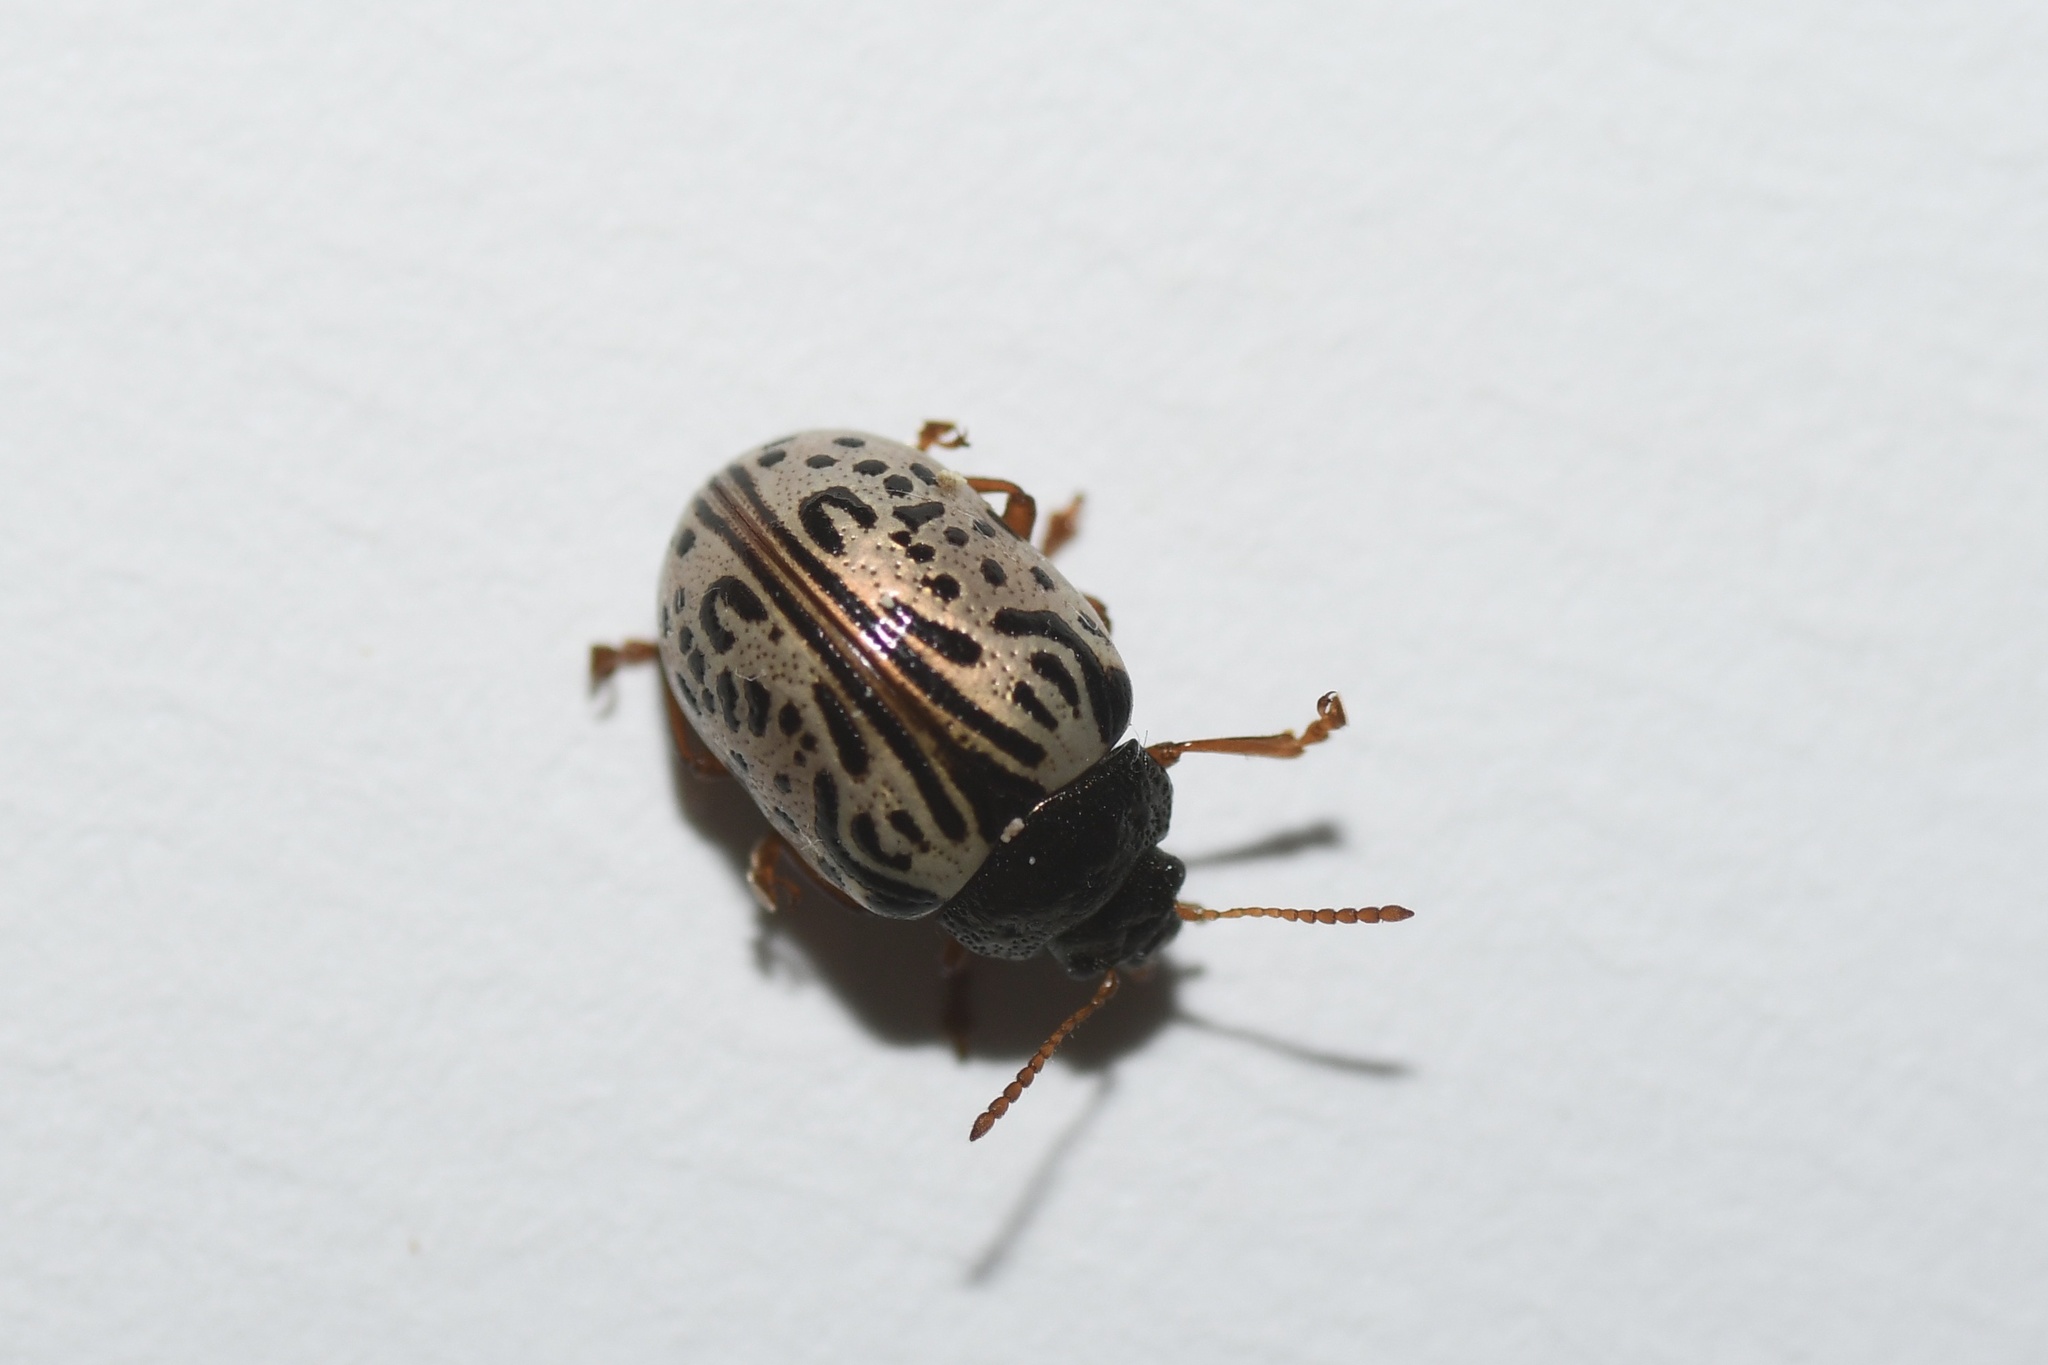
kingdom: Animalia
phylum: Arthropoda
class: Insecta
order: Coleoptera
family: Chrysomelidae
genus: Calligrapha
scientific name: Calligrapha philadelphica
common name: Dogwood leaf beetle
